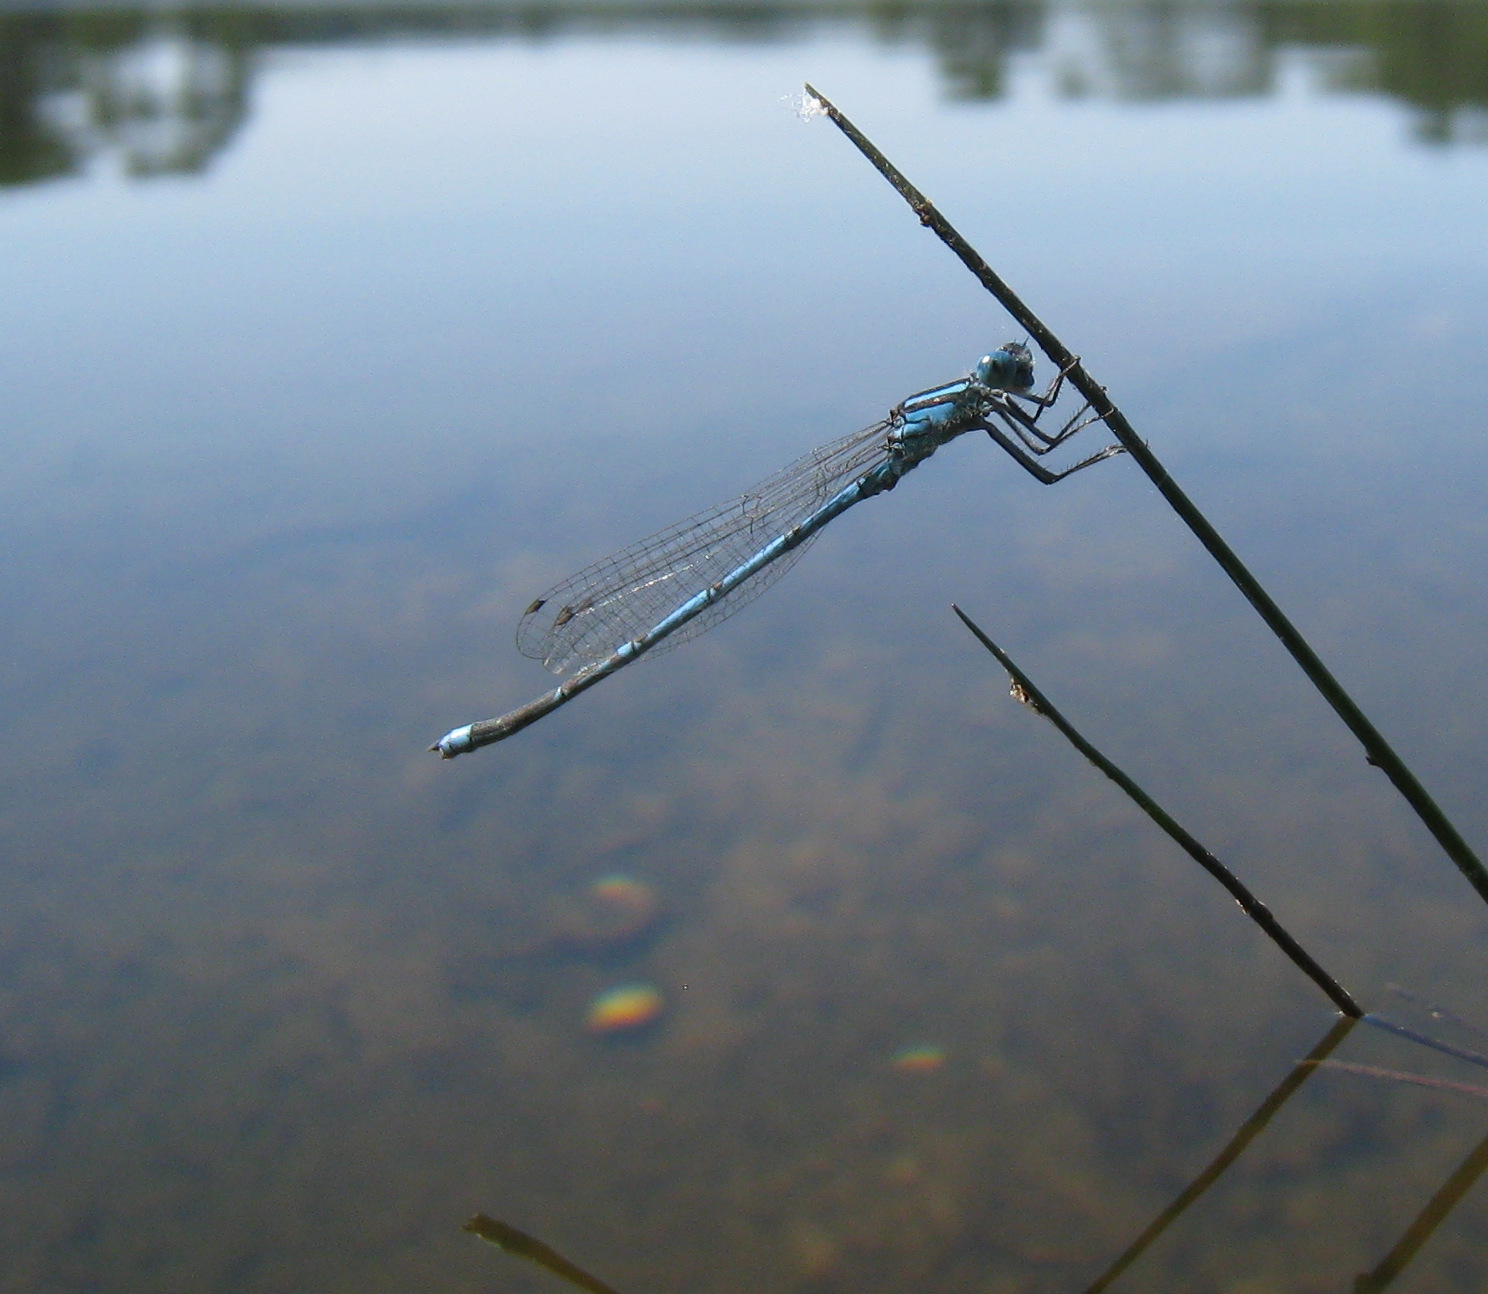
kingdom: Animalia
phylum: Arthropoda
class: Insecta
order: Odonata
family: Coenagrionidae
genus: Erythromma
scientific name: Erythromma lindenii
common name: Blue-eye
